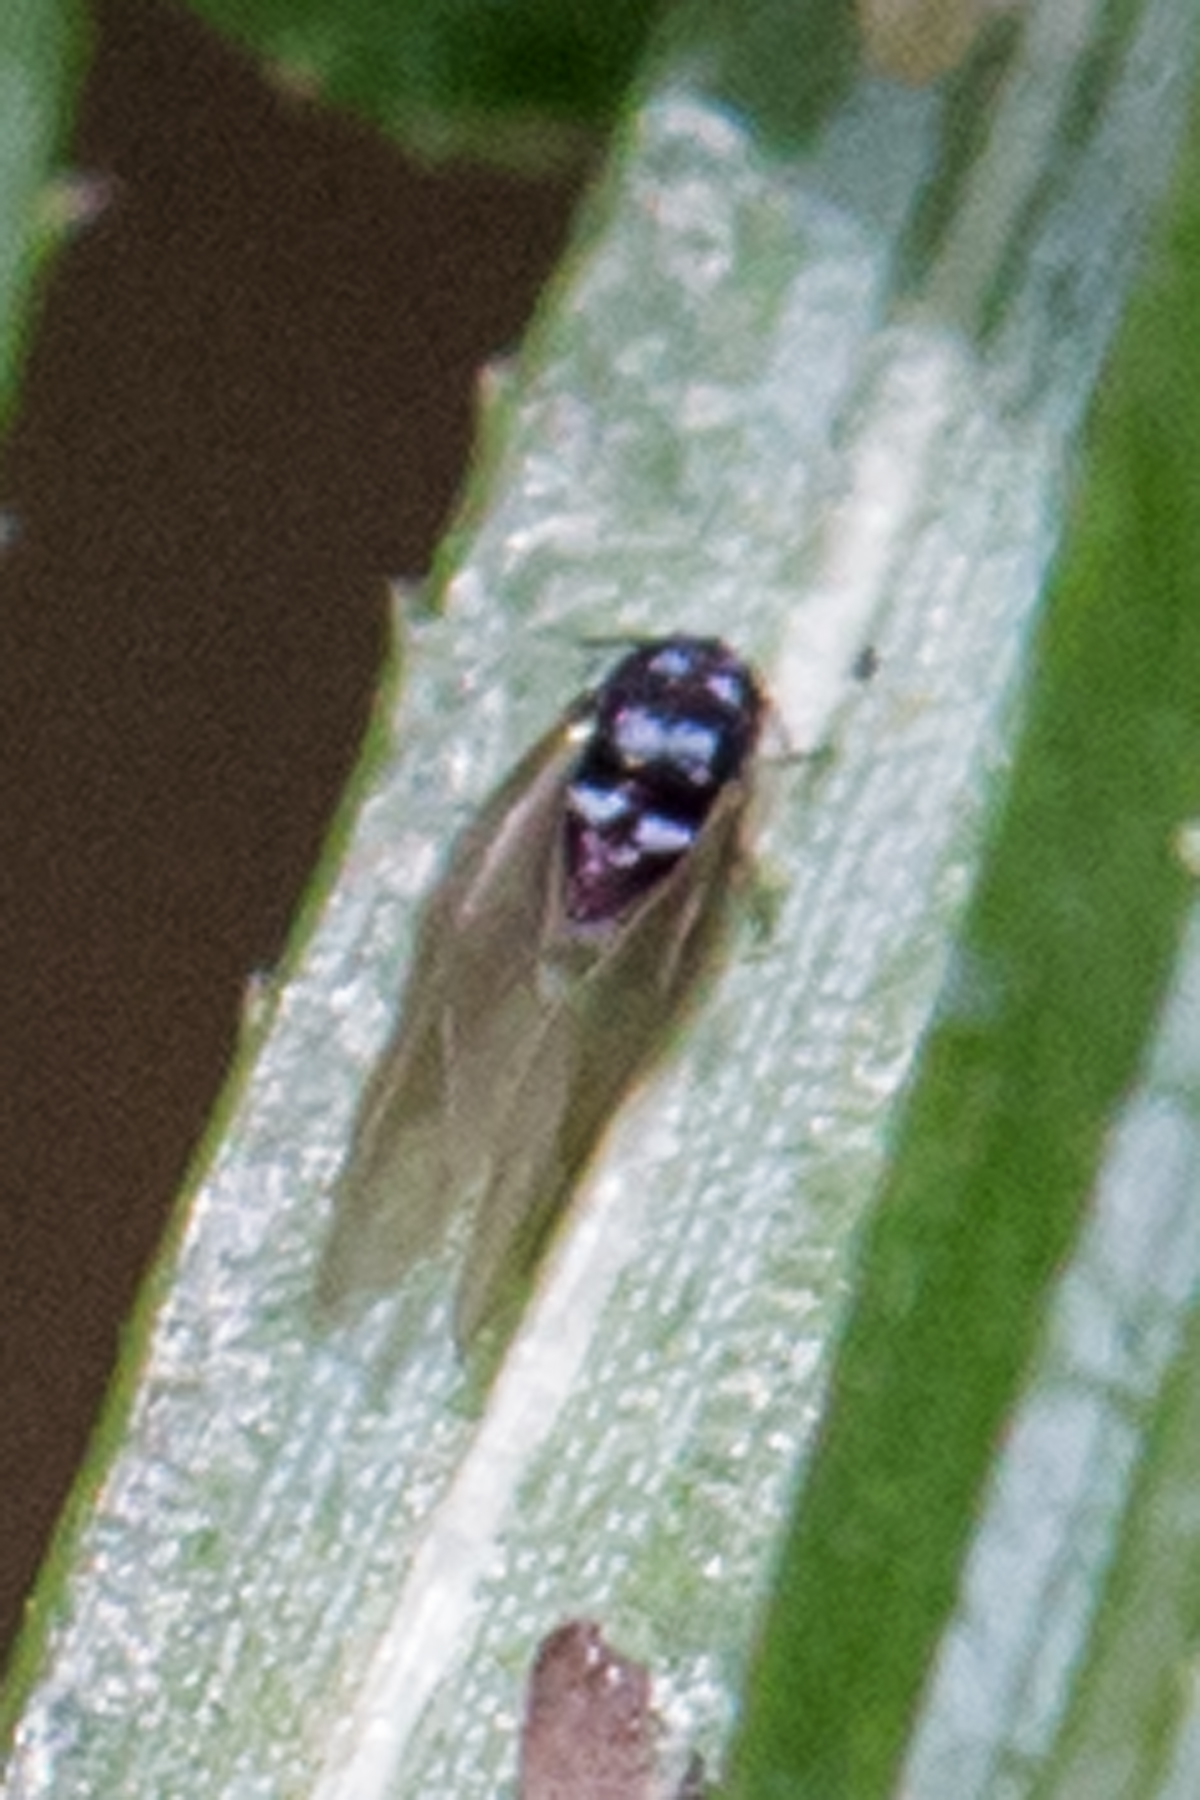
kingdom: Animalia
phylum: Arthropoda
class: Insecta
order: Hemiptera
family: Adelgidae
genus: Adelges
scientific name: Adelges tsugae
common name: Hemlock woolly adelgid
